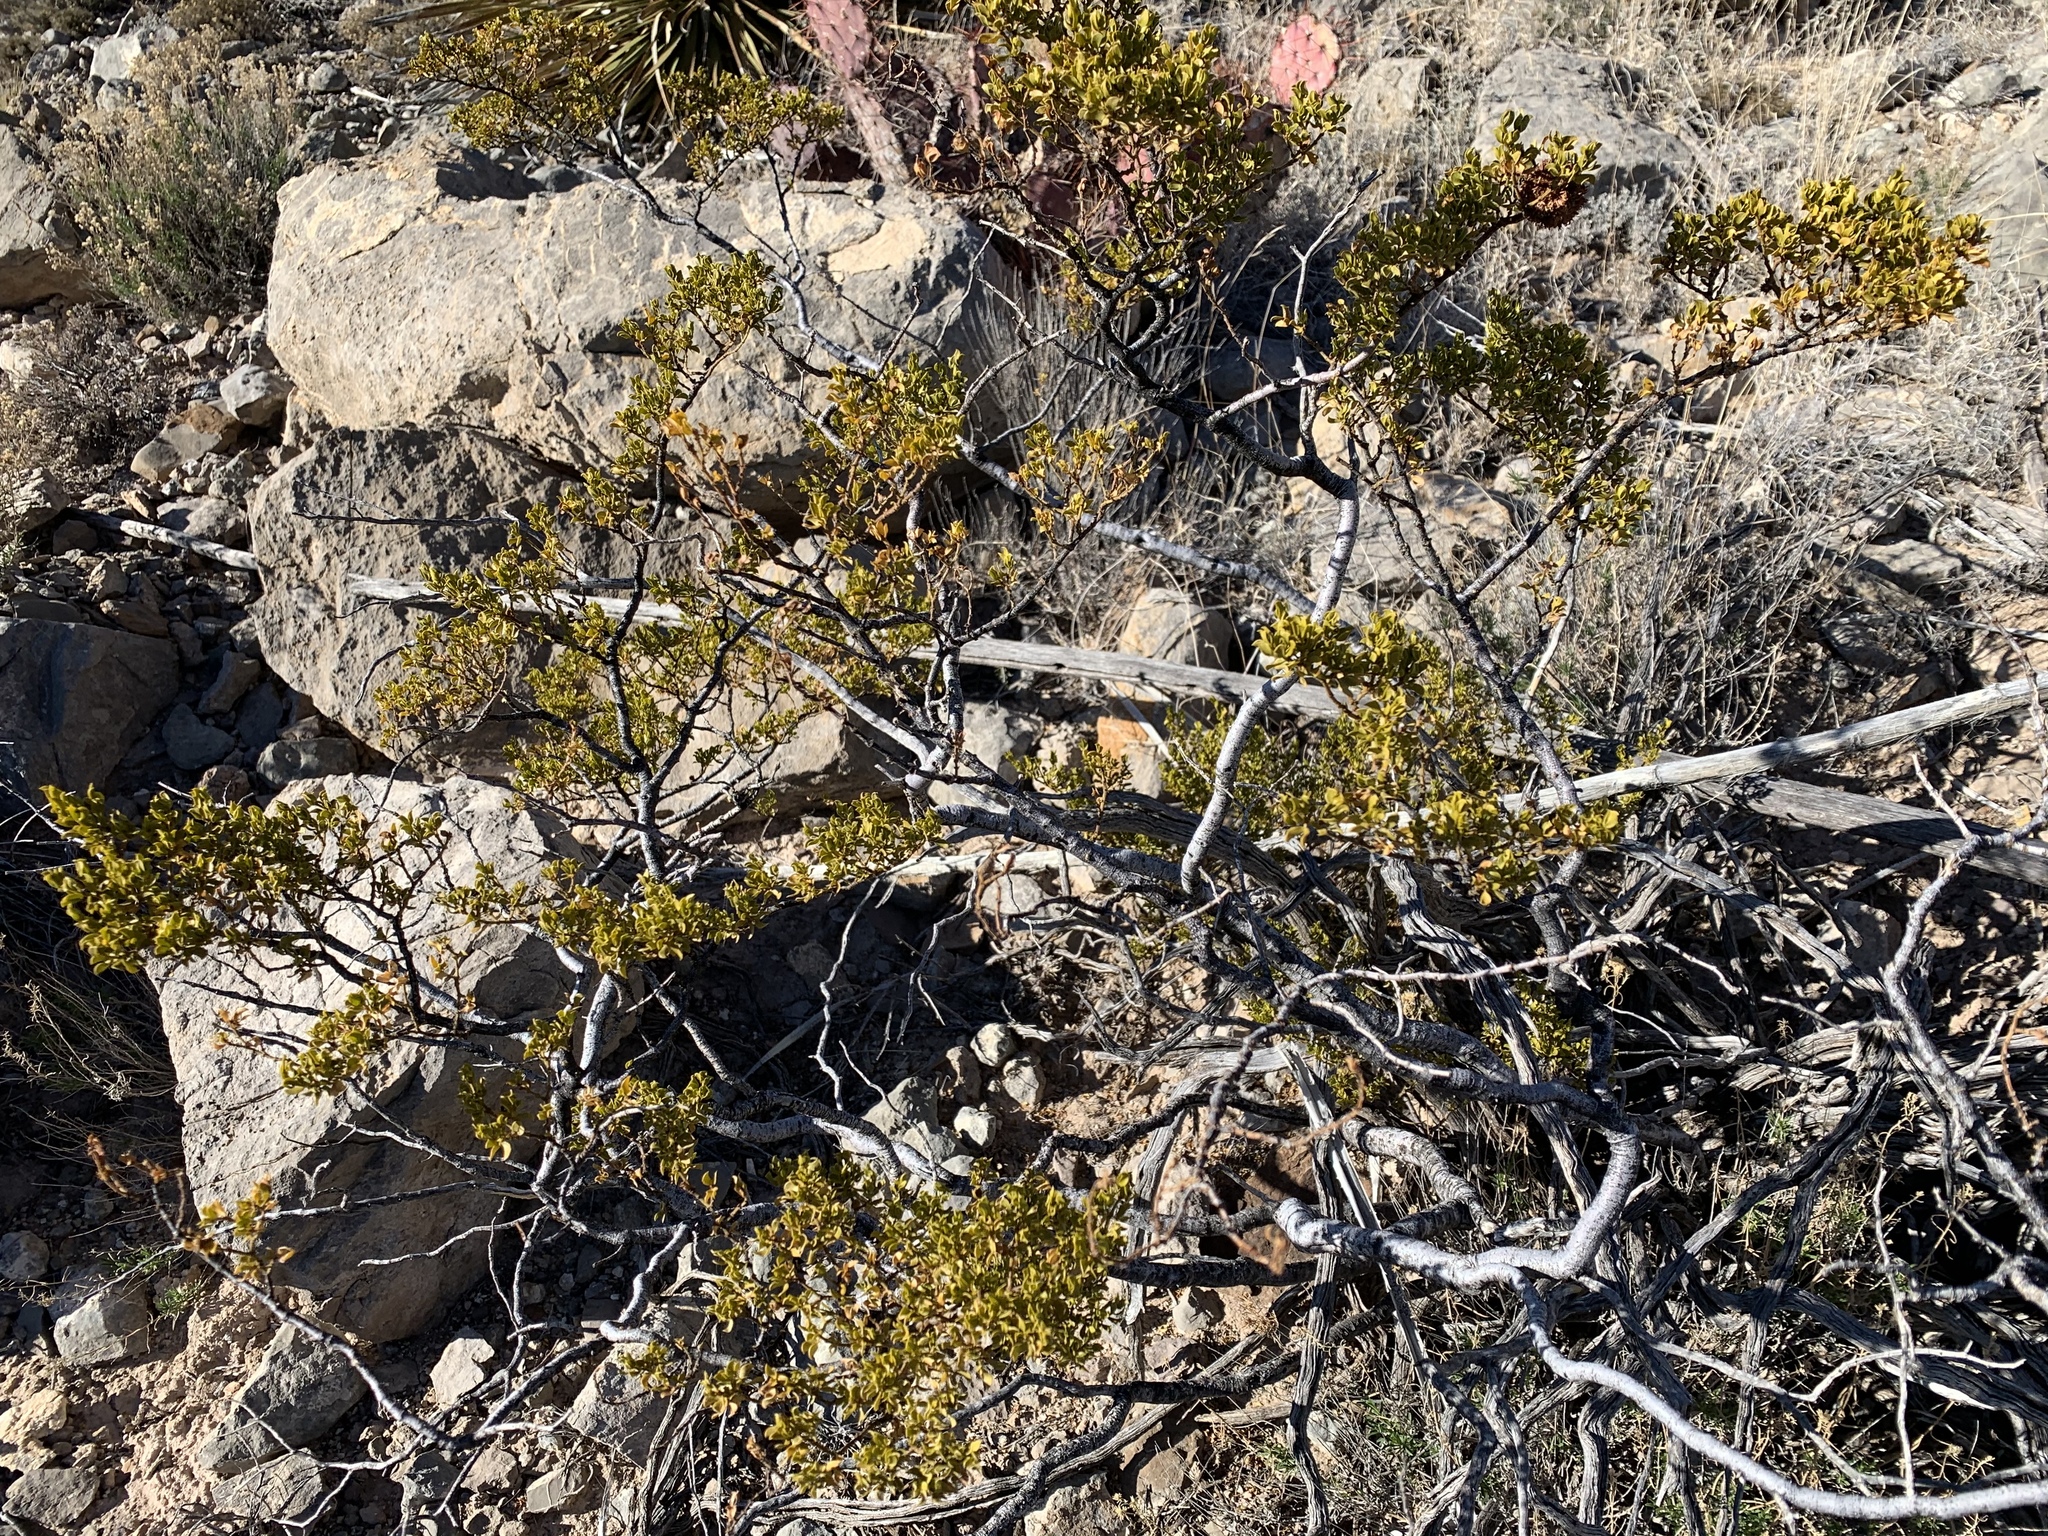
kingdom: Plantae
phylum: Tracheophyta
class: Magnoliopsida
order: Zygophyllales
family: Zygophyllaceae
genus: Larrea
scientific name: Larrea tridentata
